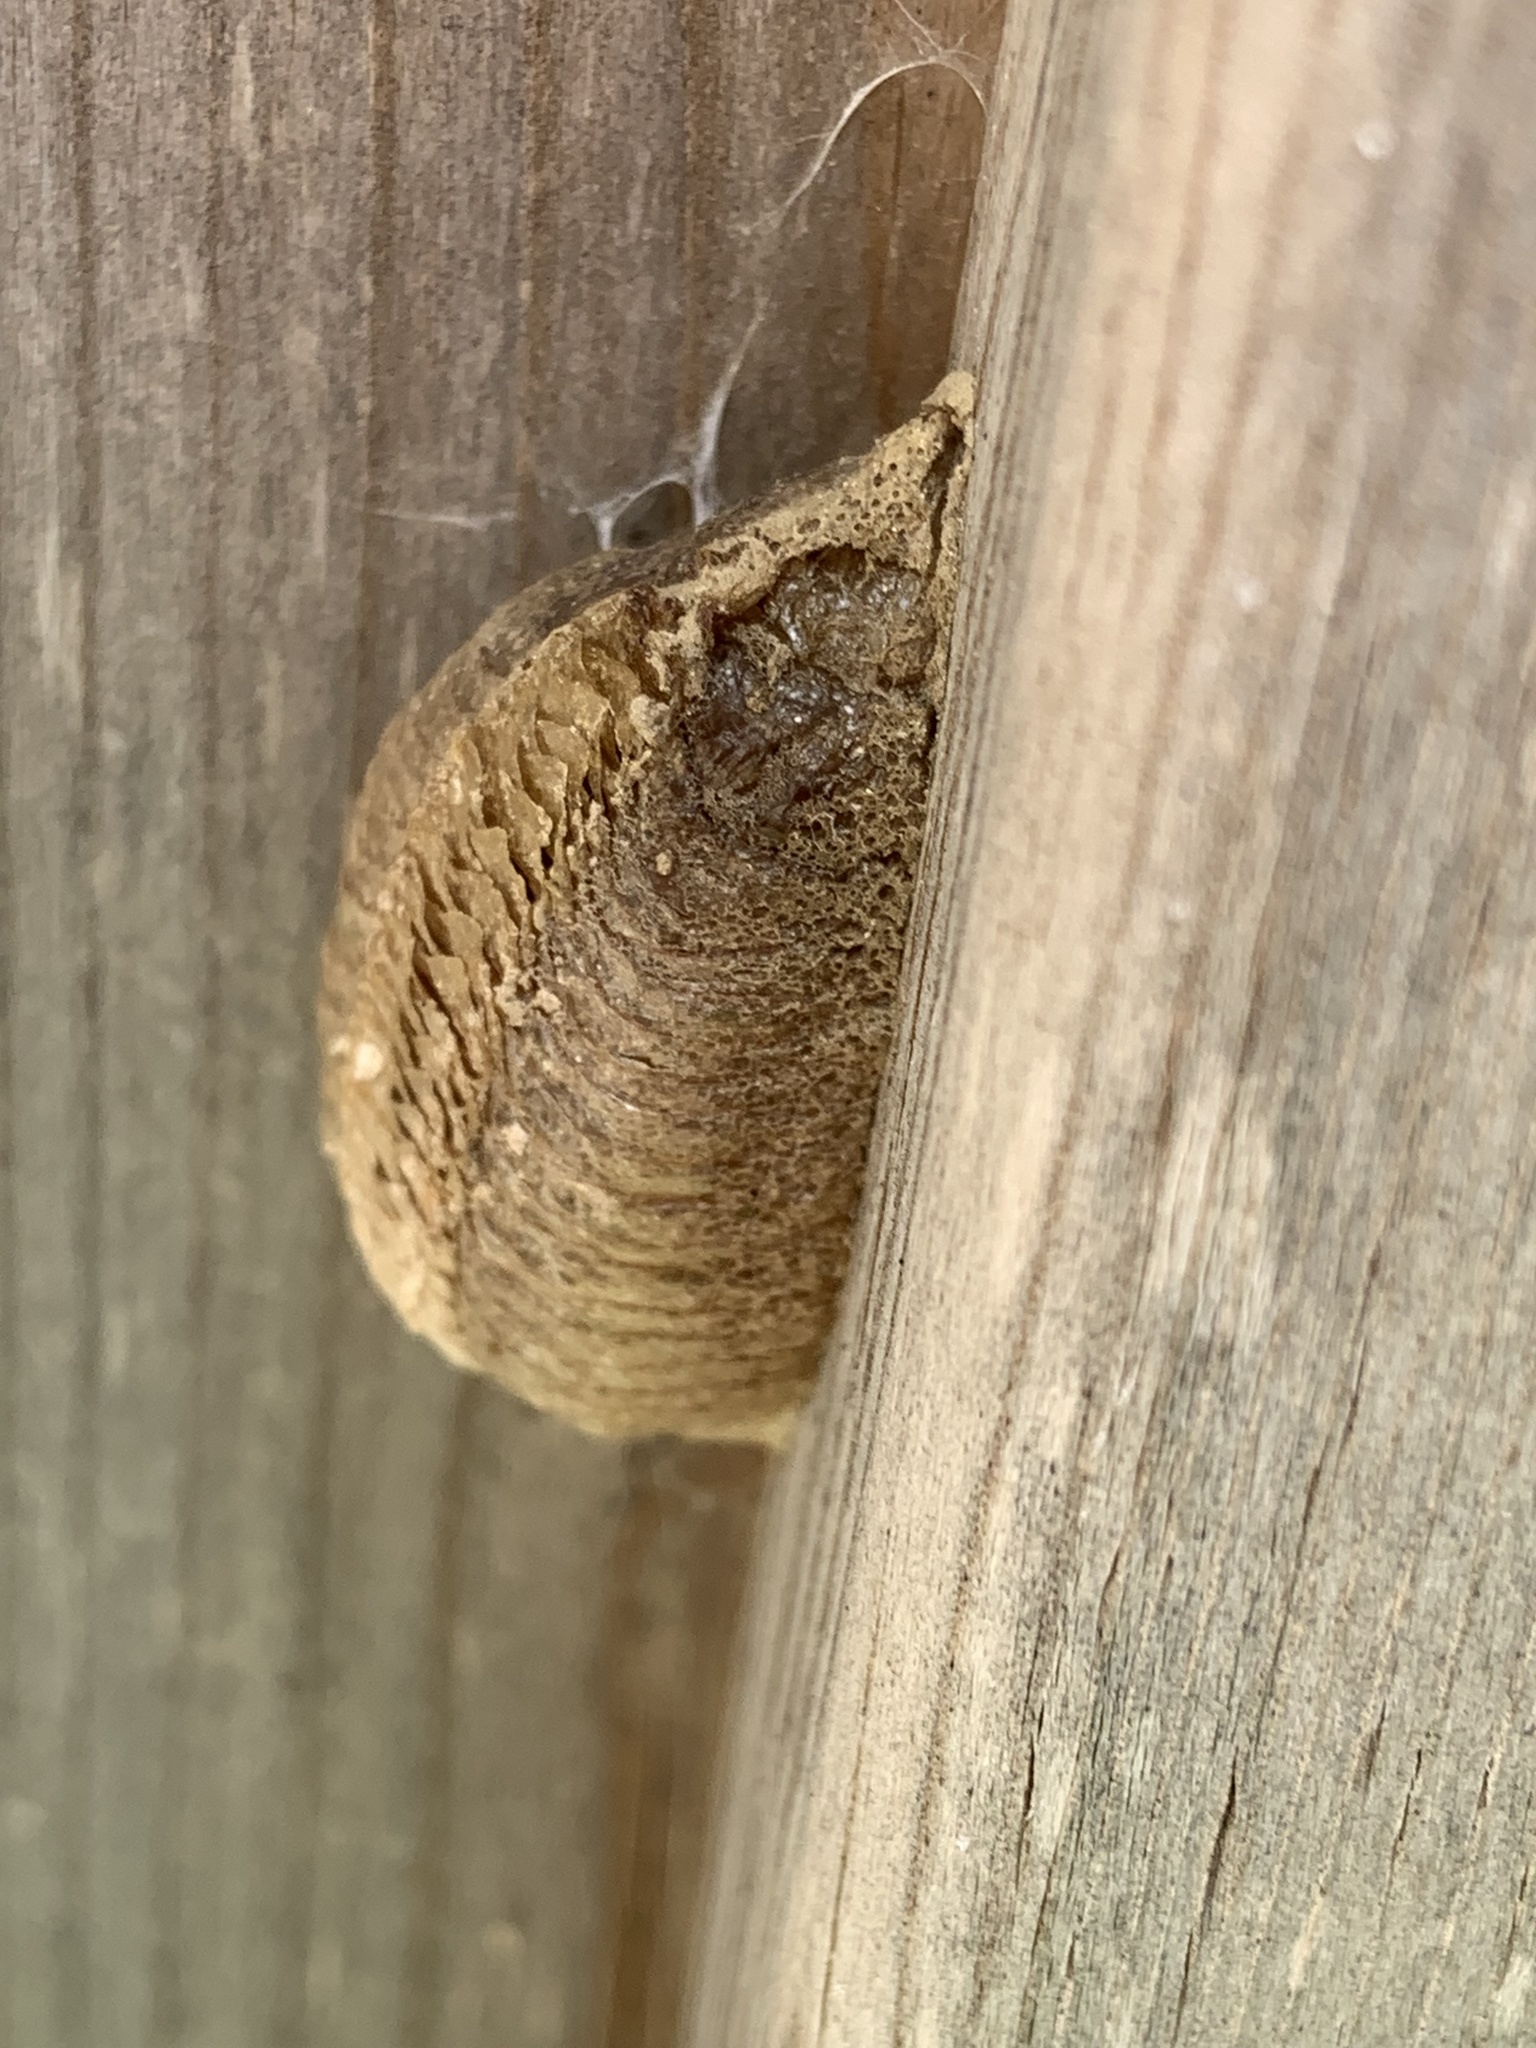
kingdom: Animalia
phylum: Arthropoda
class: Insecta
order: Mantodea
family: Mantidae
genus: Mantis
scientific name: Mantis religiosa
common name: Praying mantis
